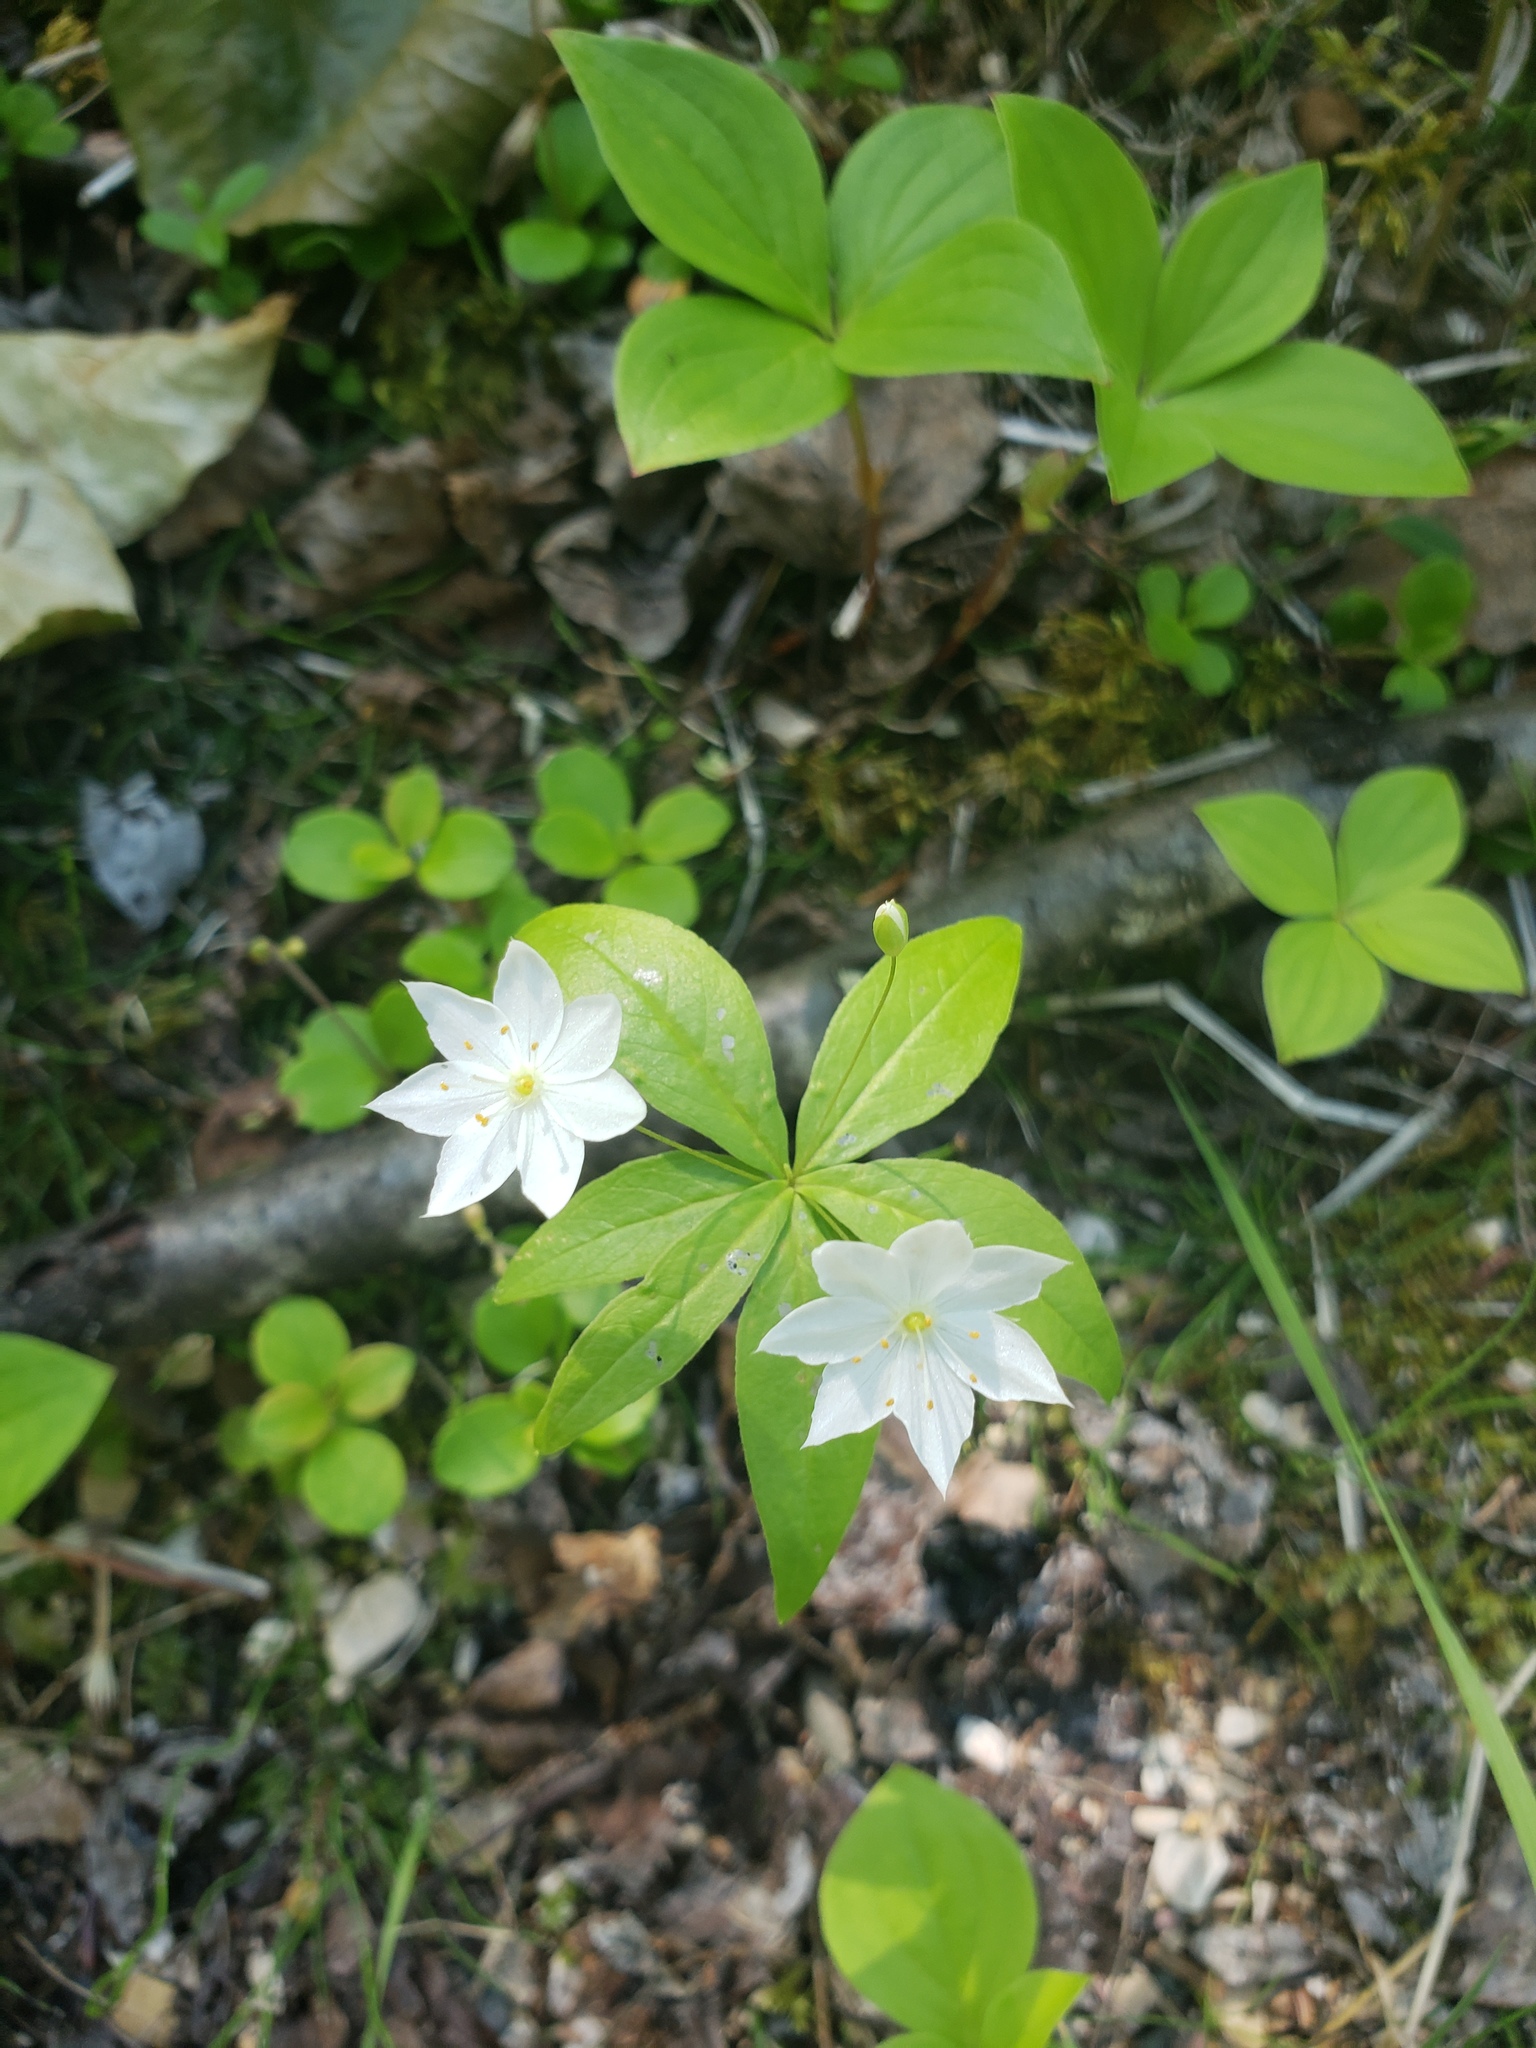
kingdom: Plantae
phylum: Tracheophyta
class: Magnoliopsida
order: Ericales
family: Primulaceae
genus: Lysimachia
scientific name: Lysimachia borealis
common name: American starflower
